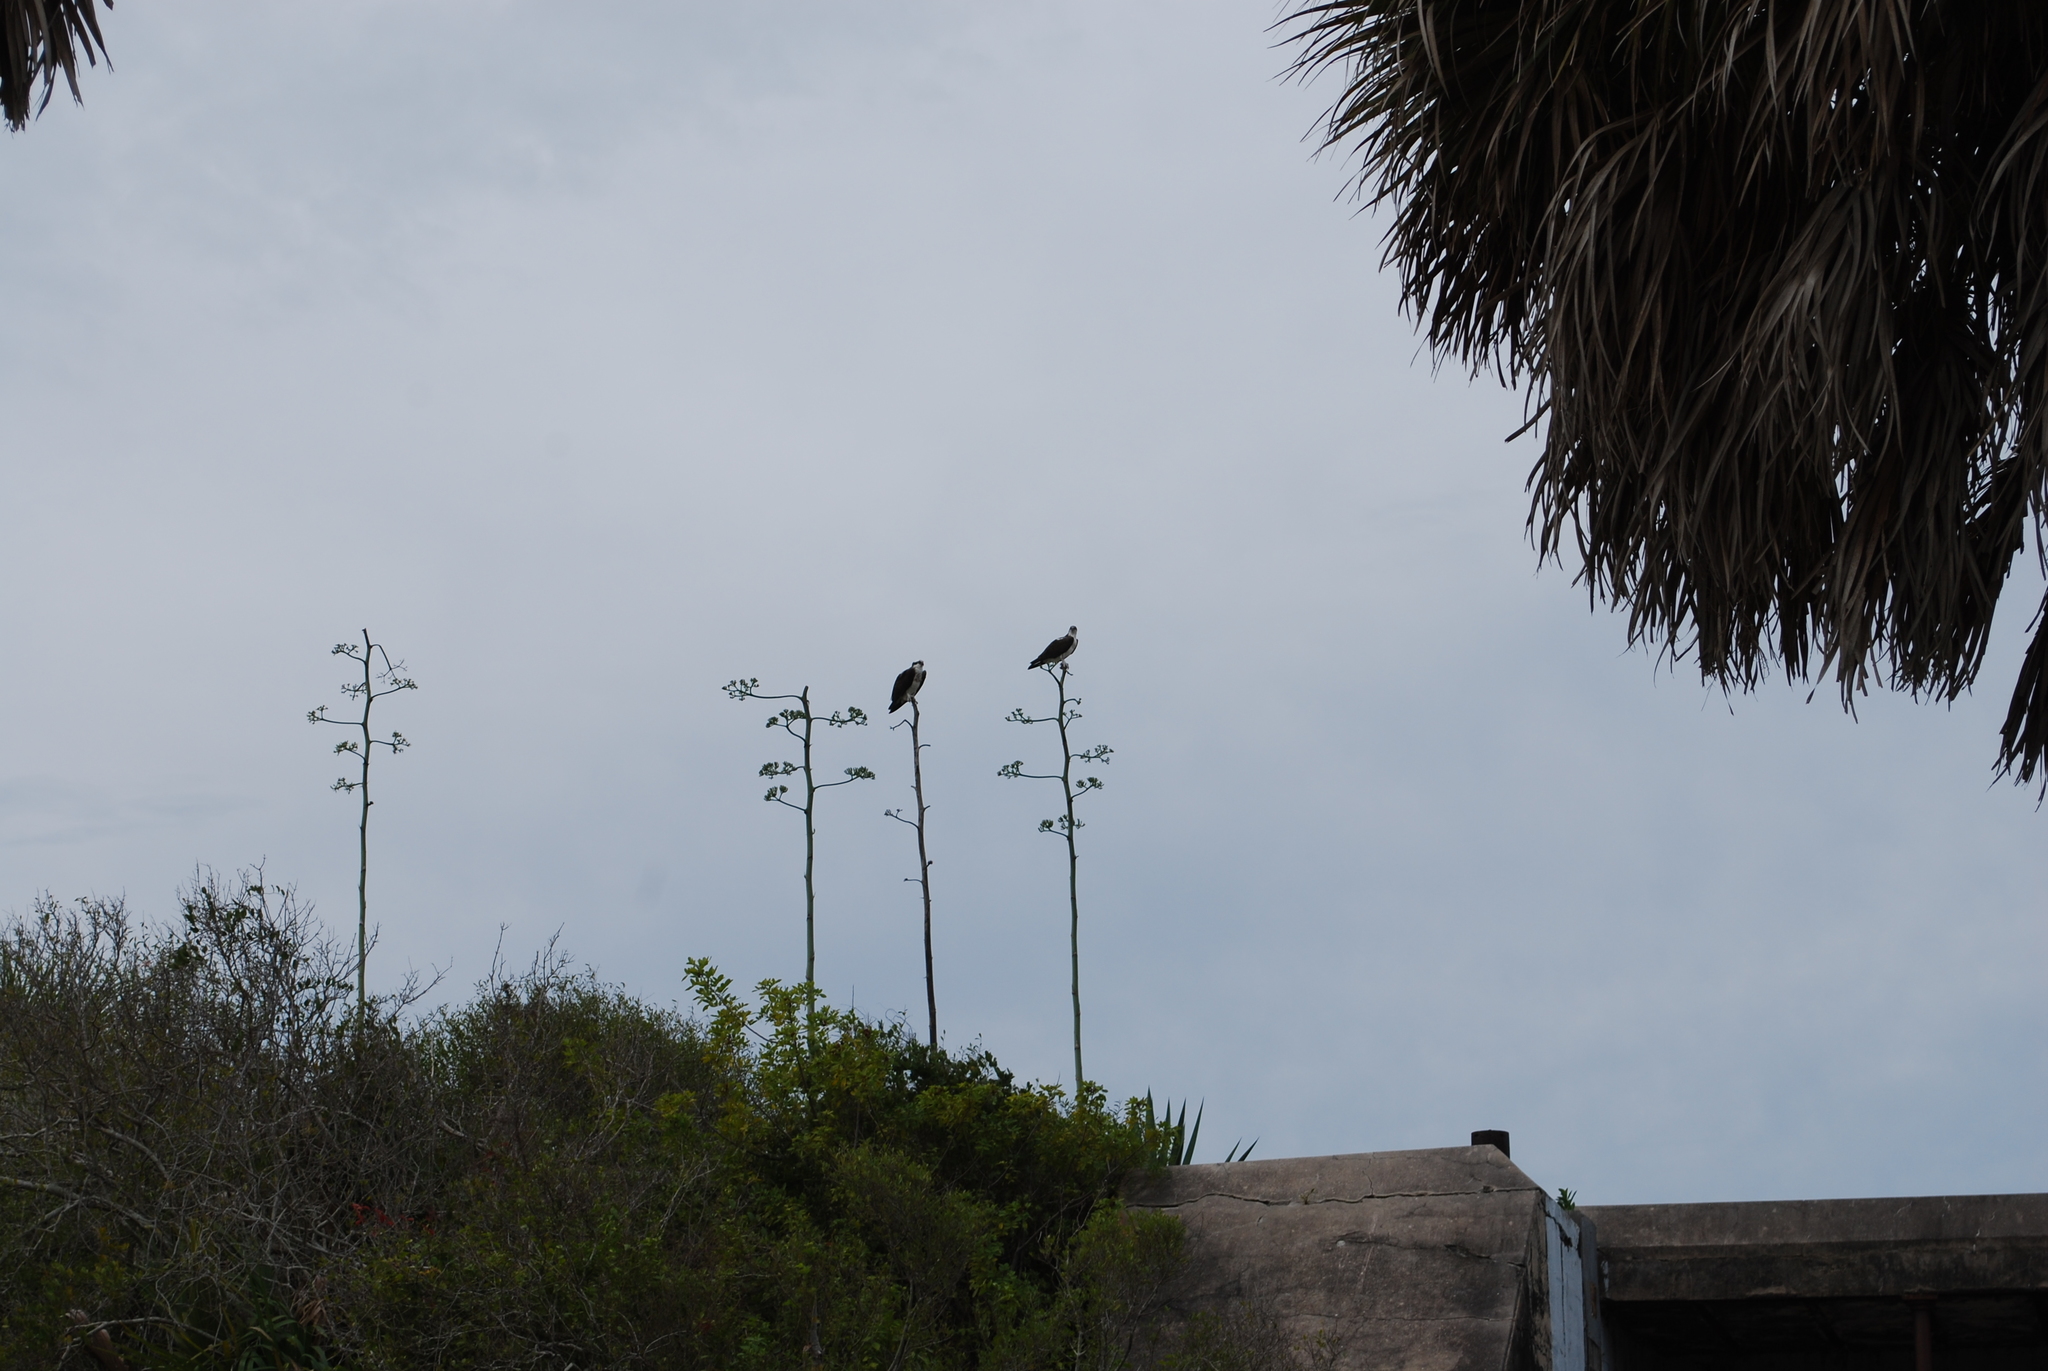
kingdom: Animalia
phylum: Chordata
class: Aves
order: Accipitriformes
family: Pandionidae
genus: Pandion
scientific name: Pandion haliaetus
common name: Osprey
